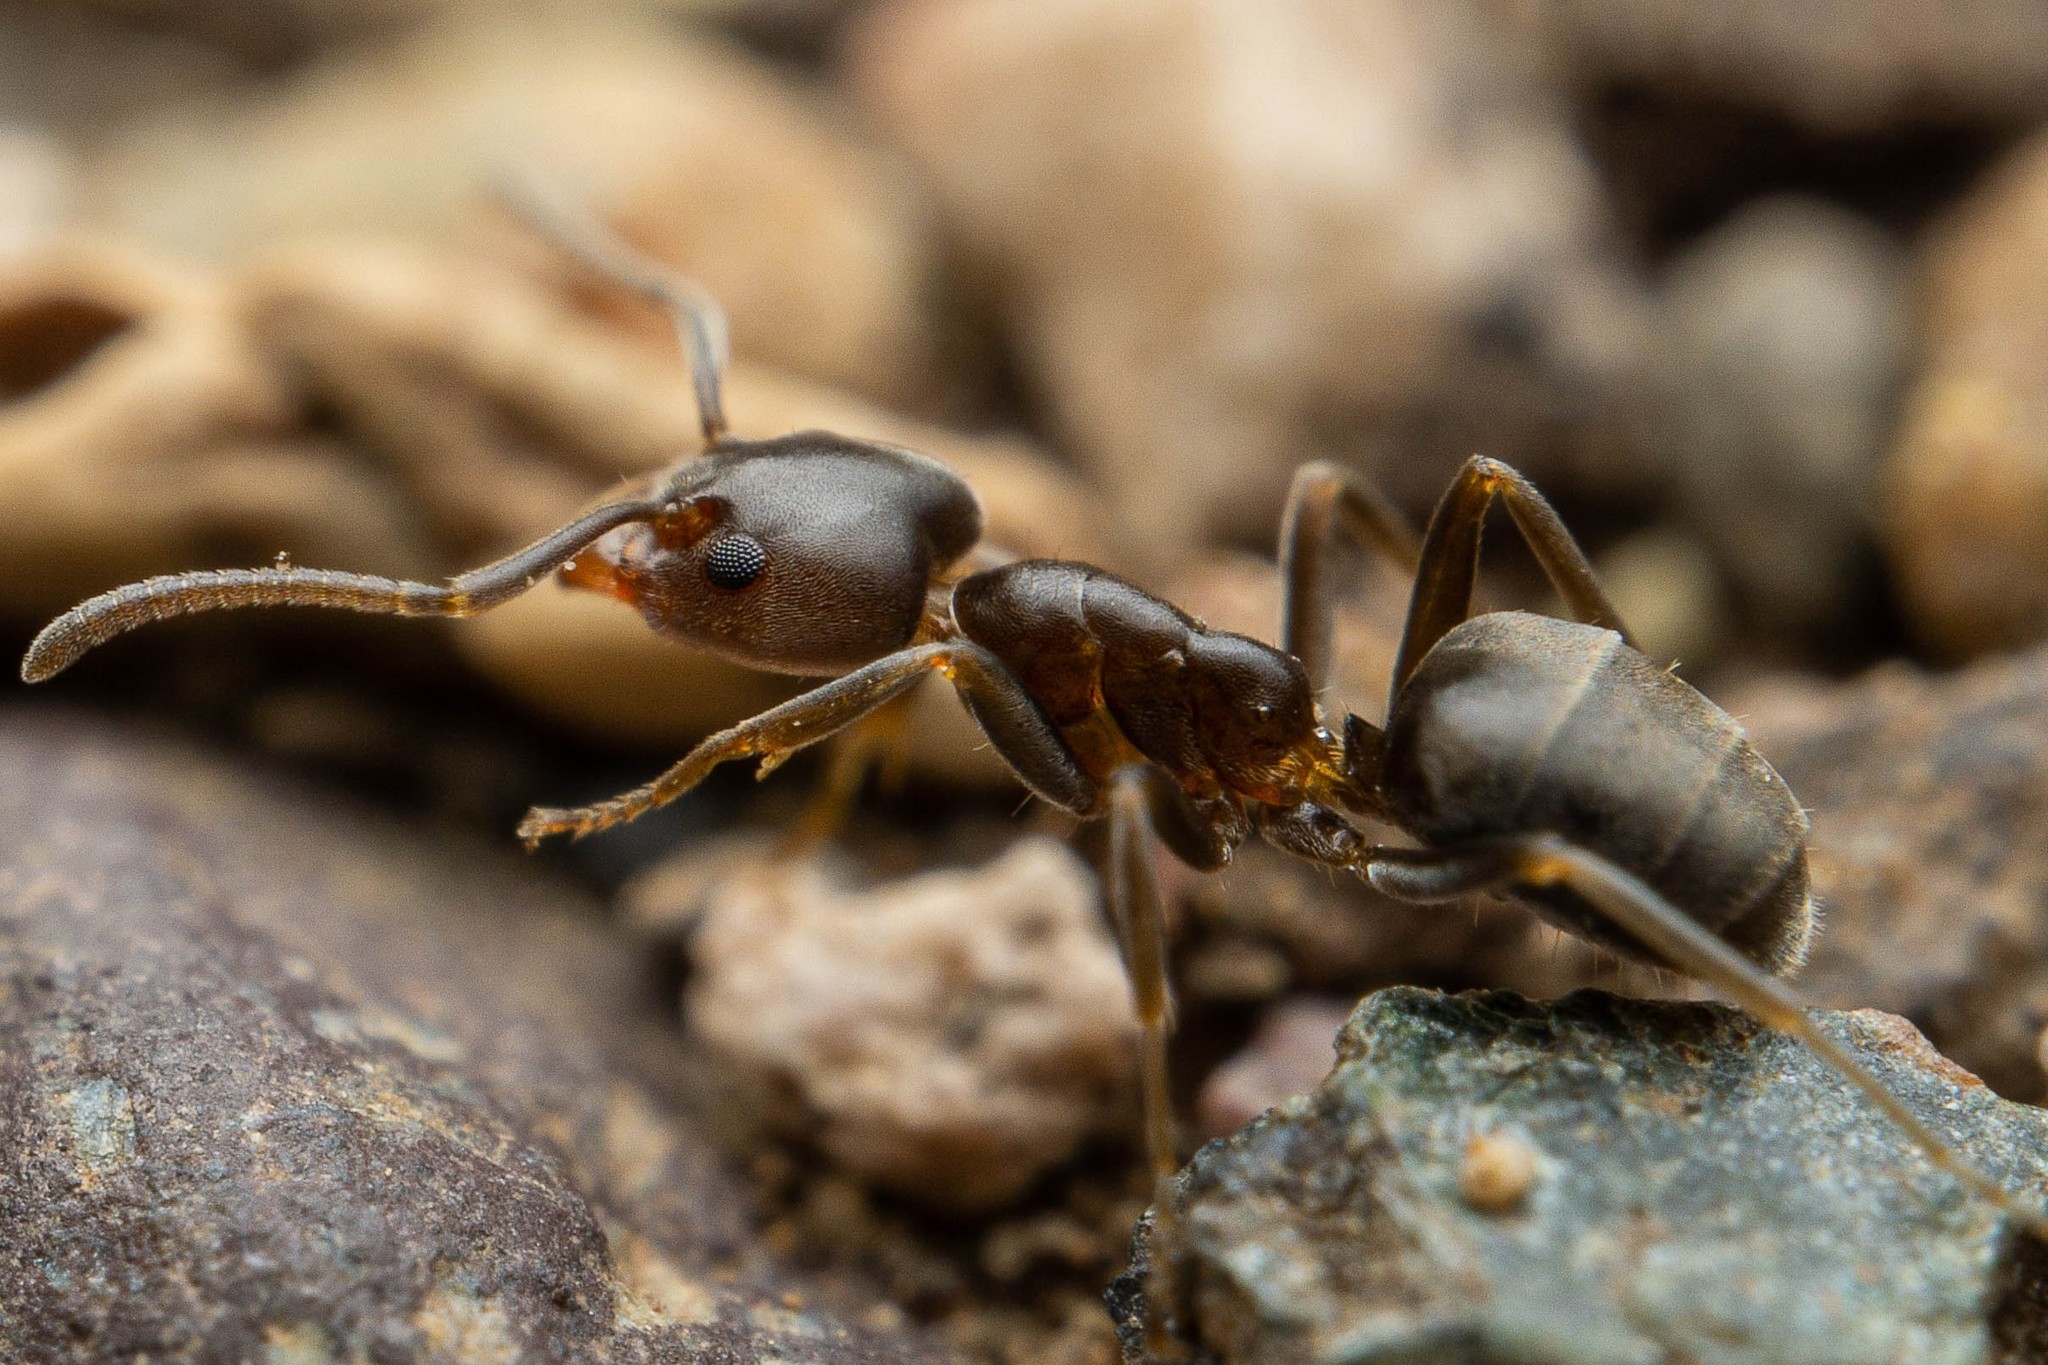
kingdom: Animalia
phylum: Arthropoda
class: Insecta
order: Hymenoptera
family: Formicidae
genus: Liometopum
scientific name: Liometopum luctuosum
